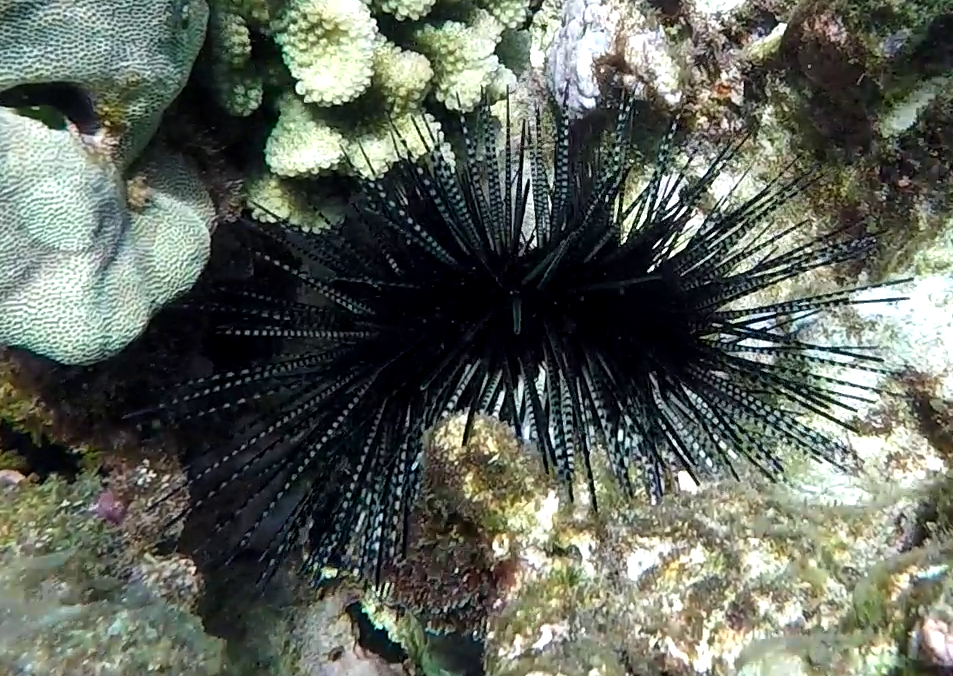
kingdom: Animalia
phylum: Echinodermata
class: Echinoidea
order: Diadematoida
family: Diadematidae
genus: Echinothrix
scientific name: Echinothrix calamaris
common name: Banded sea urchin
